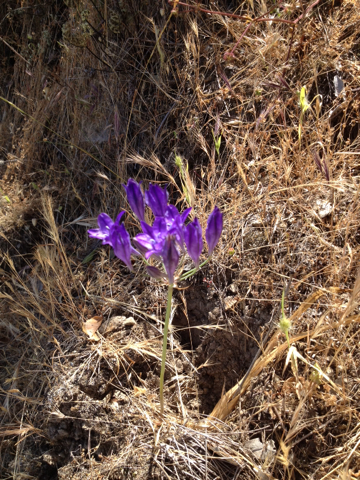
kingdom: Plantae
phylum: Tracheophyta
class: Liliopsida
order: Asparagales
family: Asparagaceae
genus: Triteleia
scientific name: Triteleia laxa
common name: Triplet-lily
